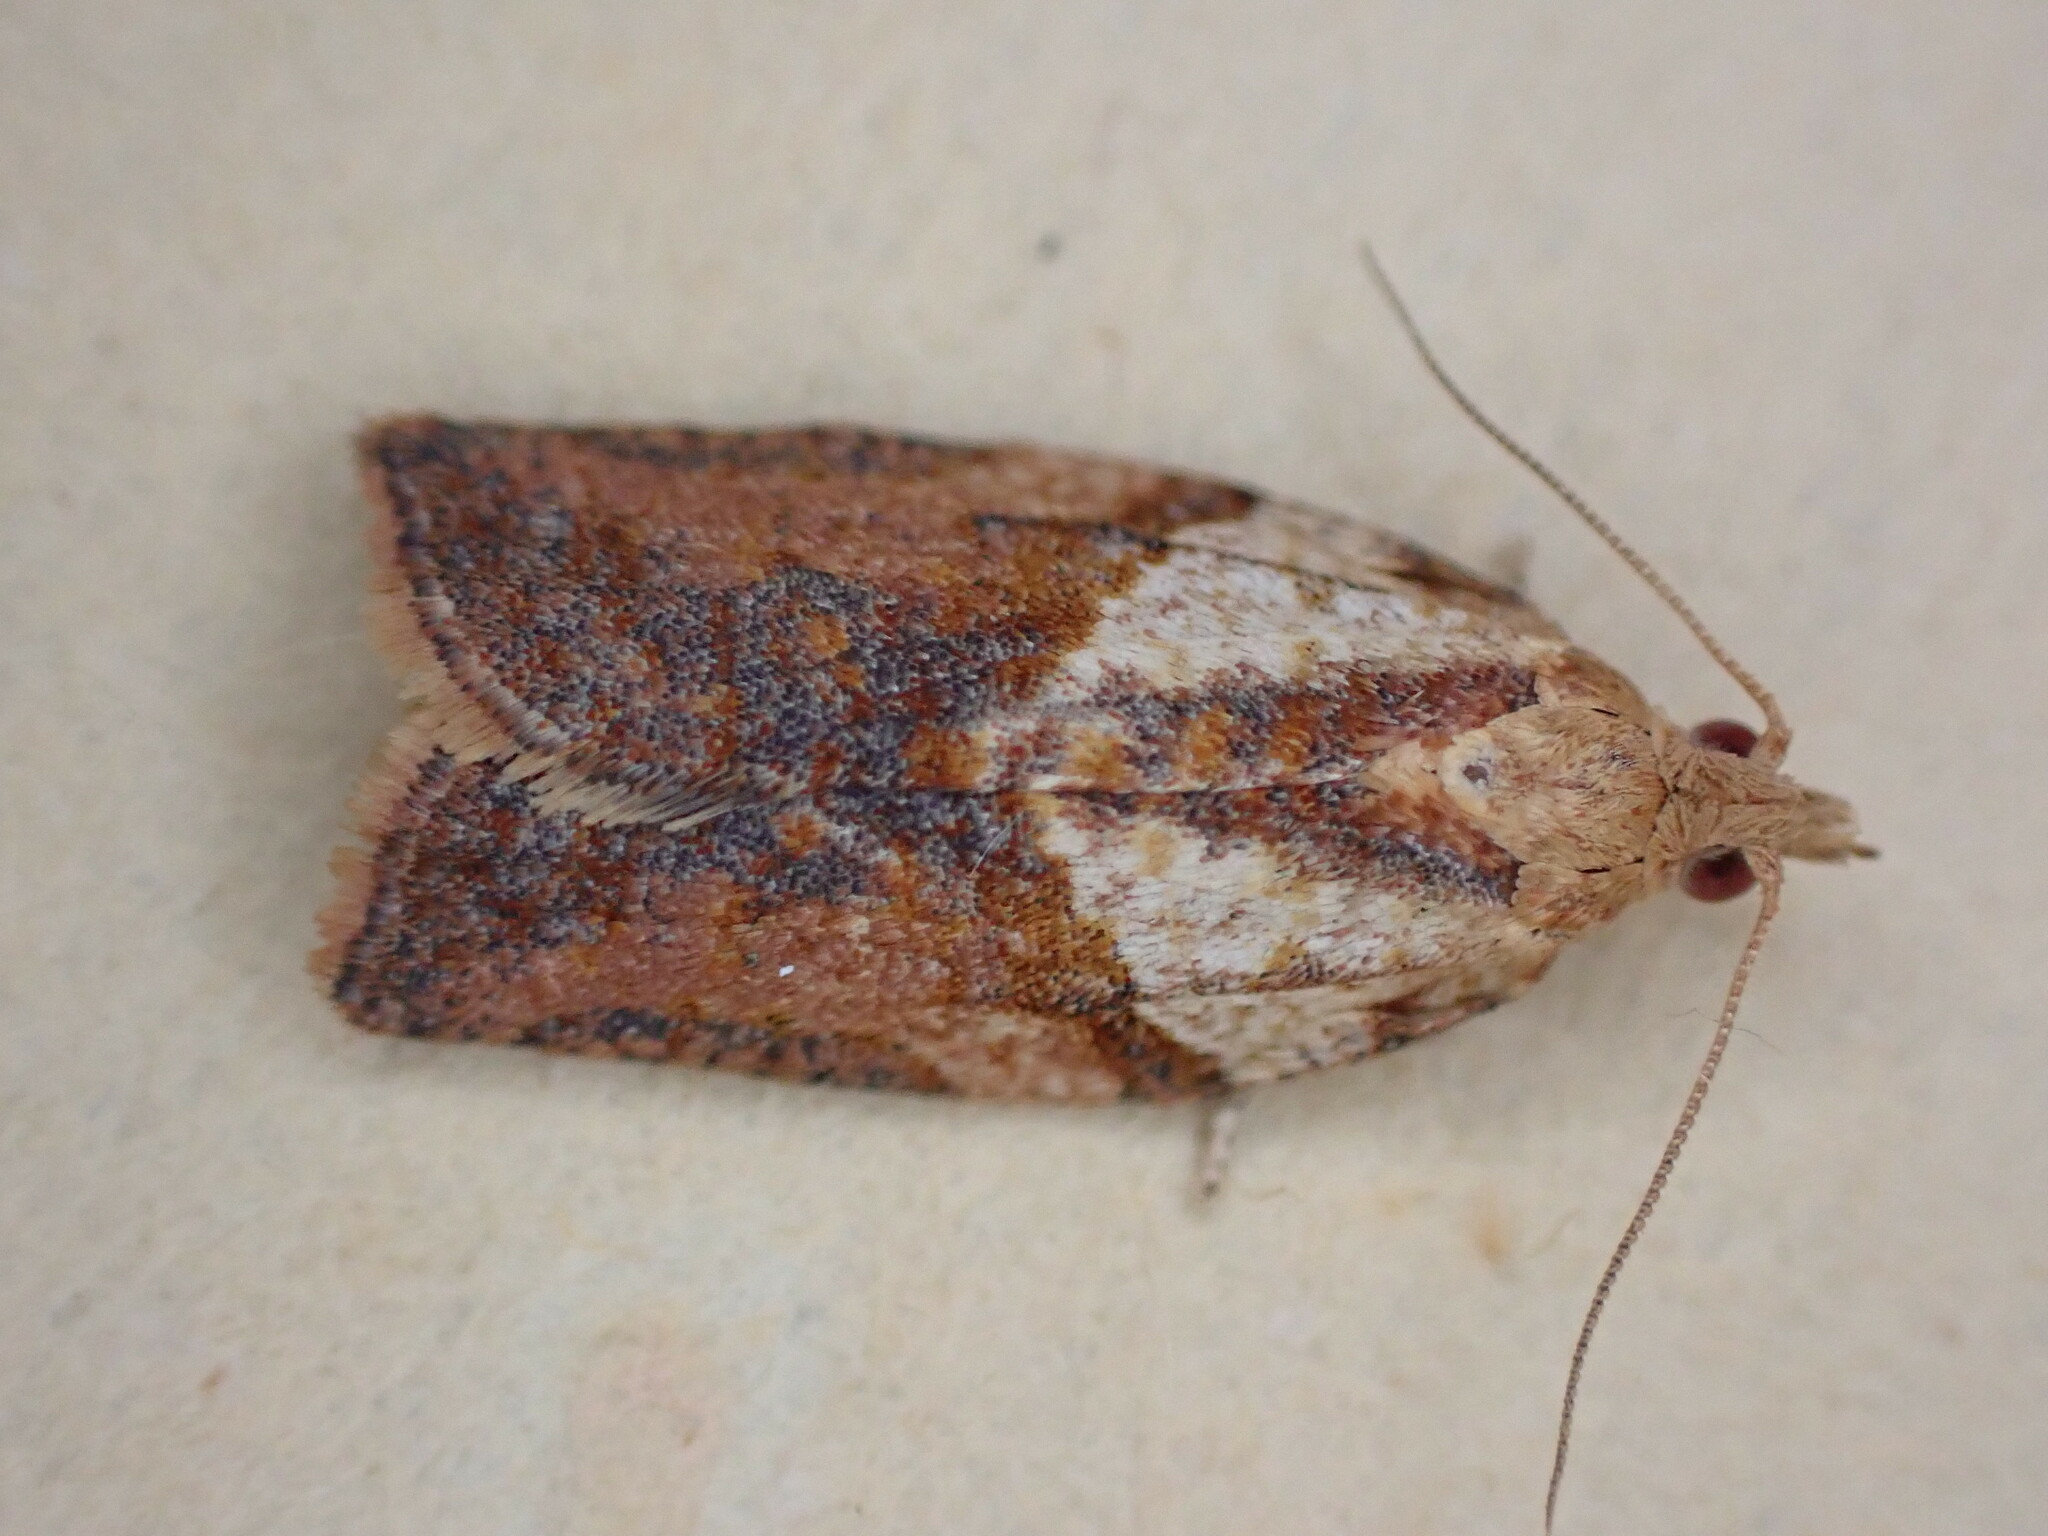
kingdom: Animalia
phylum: Arthropoda
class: Insecta
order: Lepidoptera
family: Tortricidae
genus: Epiphyas
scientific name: Epiphyas postvittana
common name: Light brown apple moth
